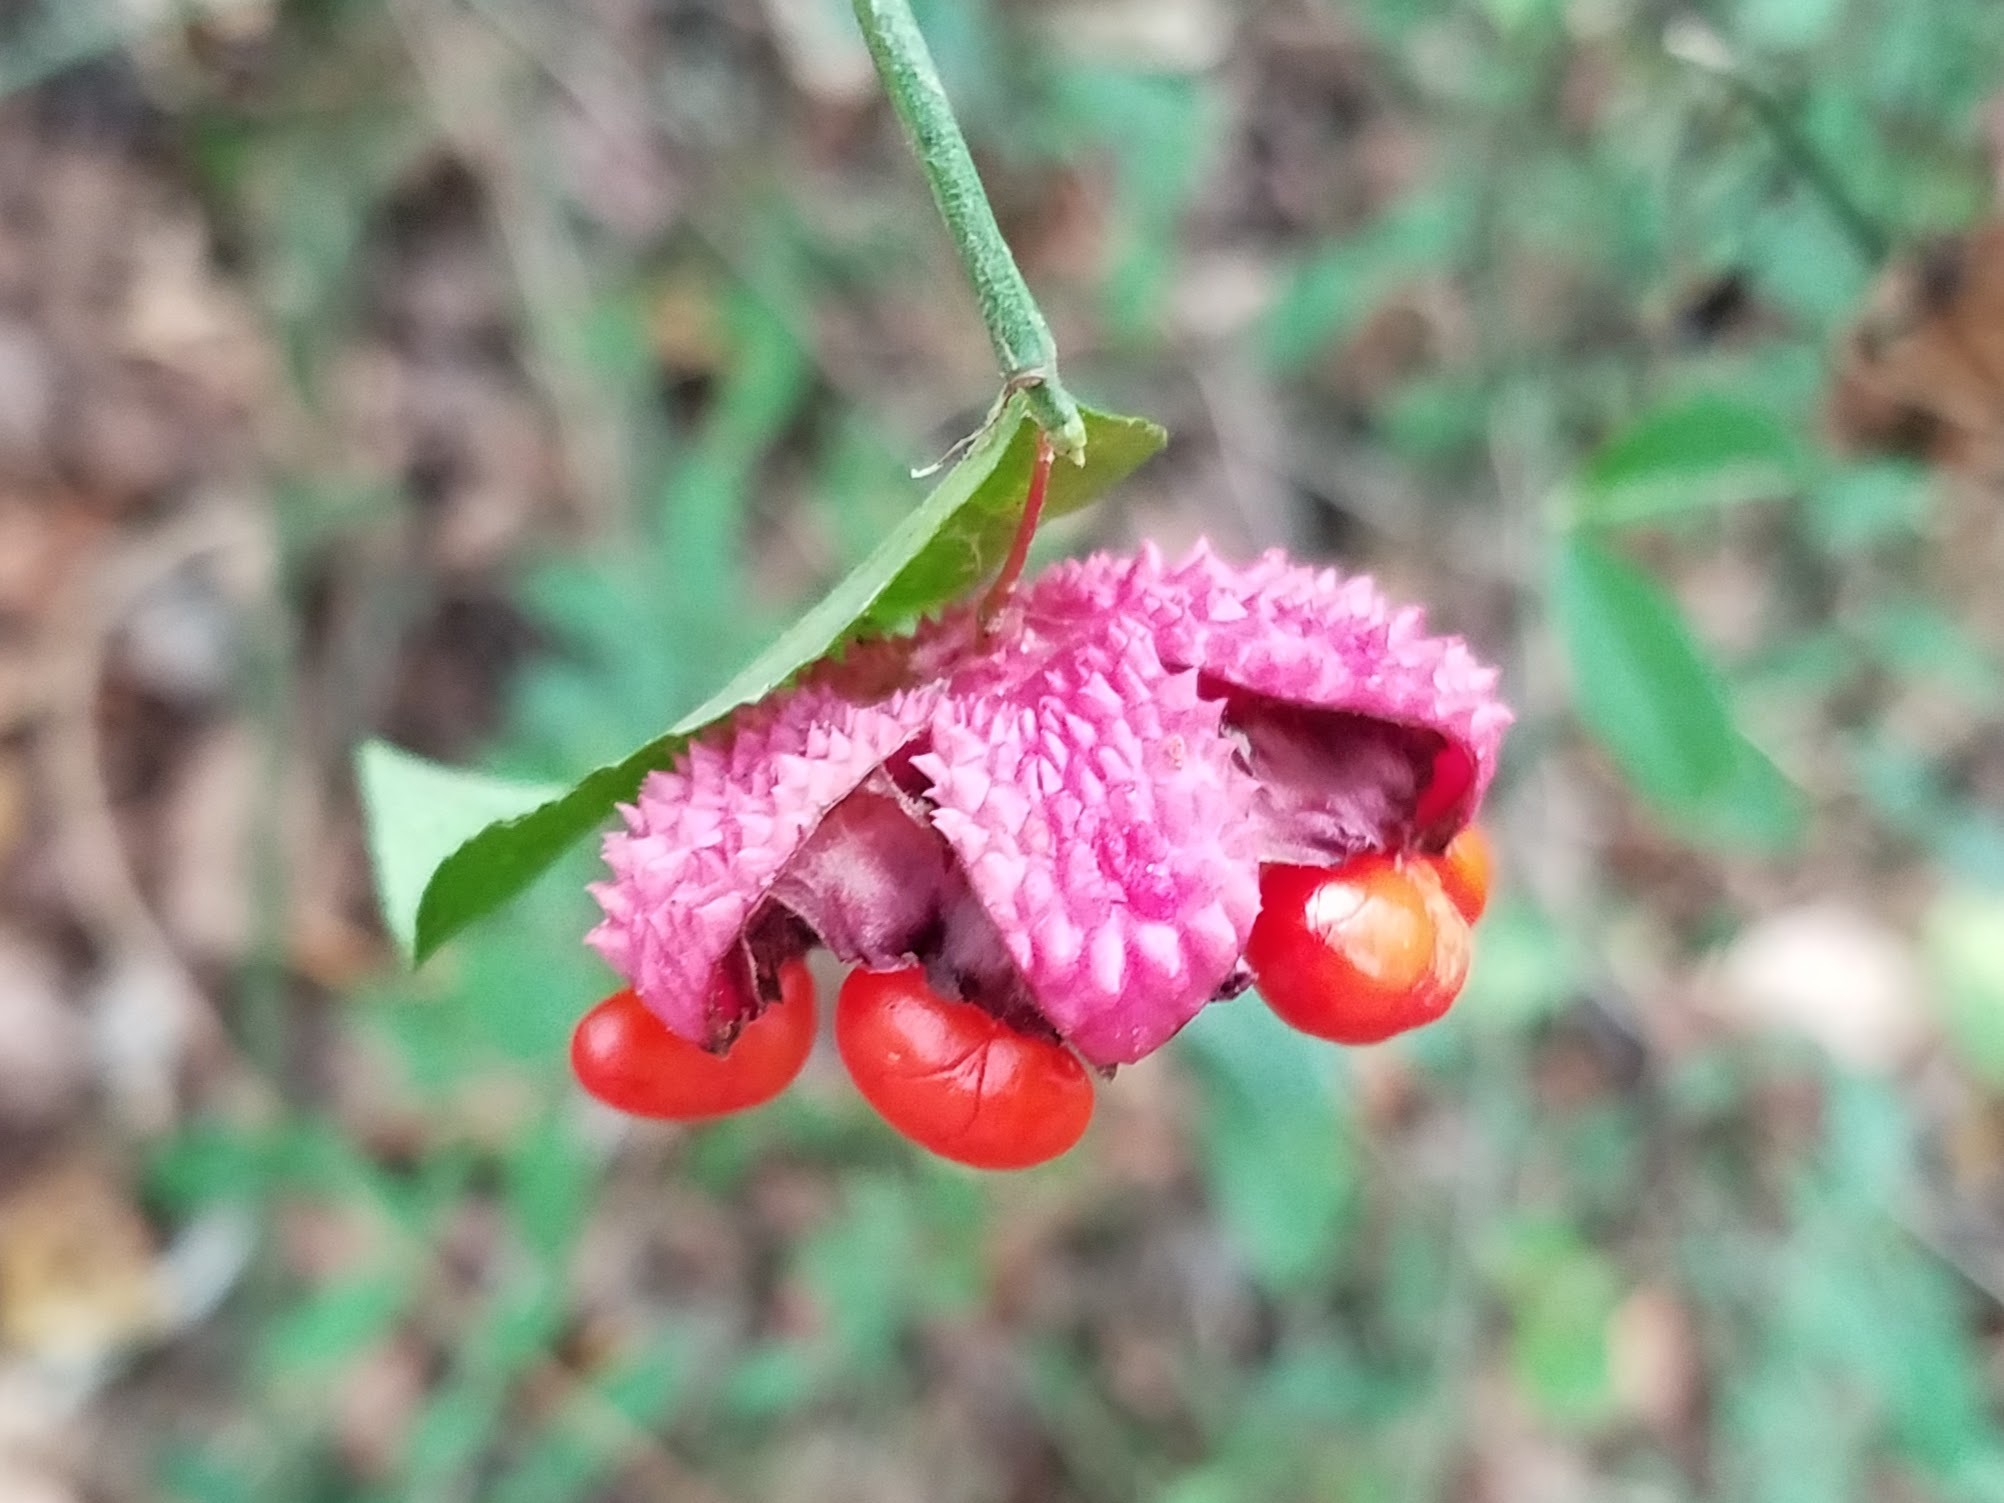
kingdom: Plantae
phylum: Tracheophyta
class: Magnoliopsida
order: Celastrales
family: Celastraceae
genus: Euonymus
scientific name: Euonymus americanus
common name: Bursting-heart
